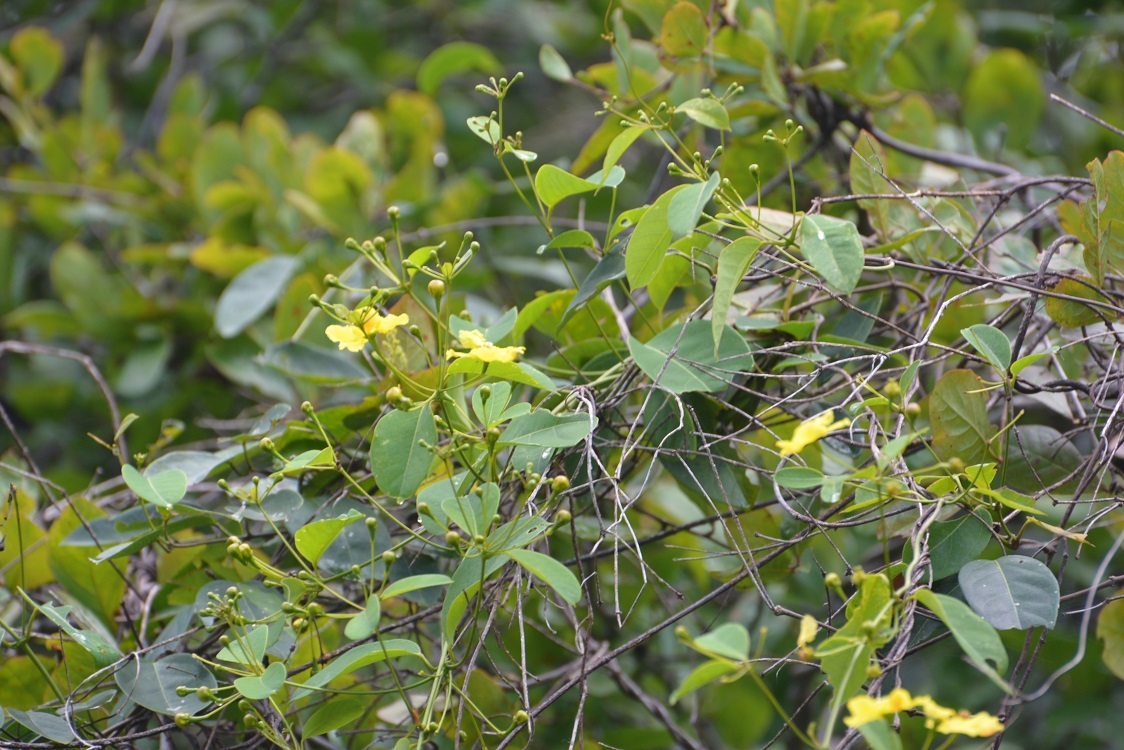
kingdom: Plantae
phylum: Tracheophyta
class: Magnoliopsida
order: Malpighiales
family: Malpighiaceae
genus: Stigmaphyllon
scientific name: Stigmaphyllon ellipticum
